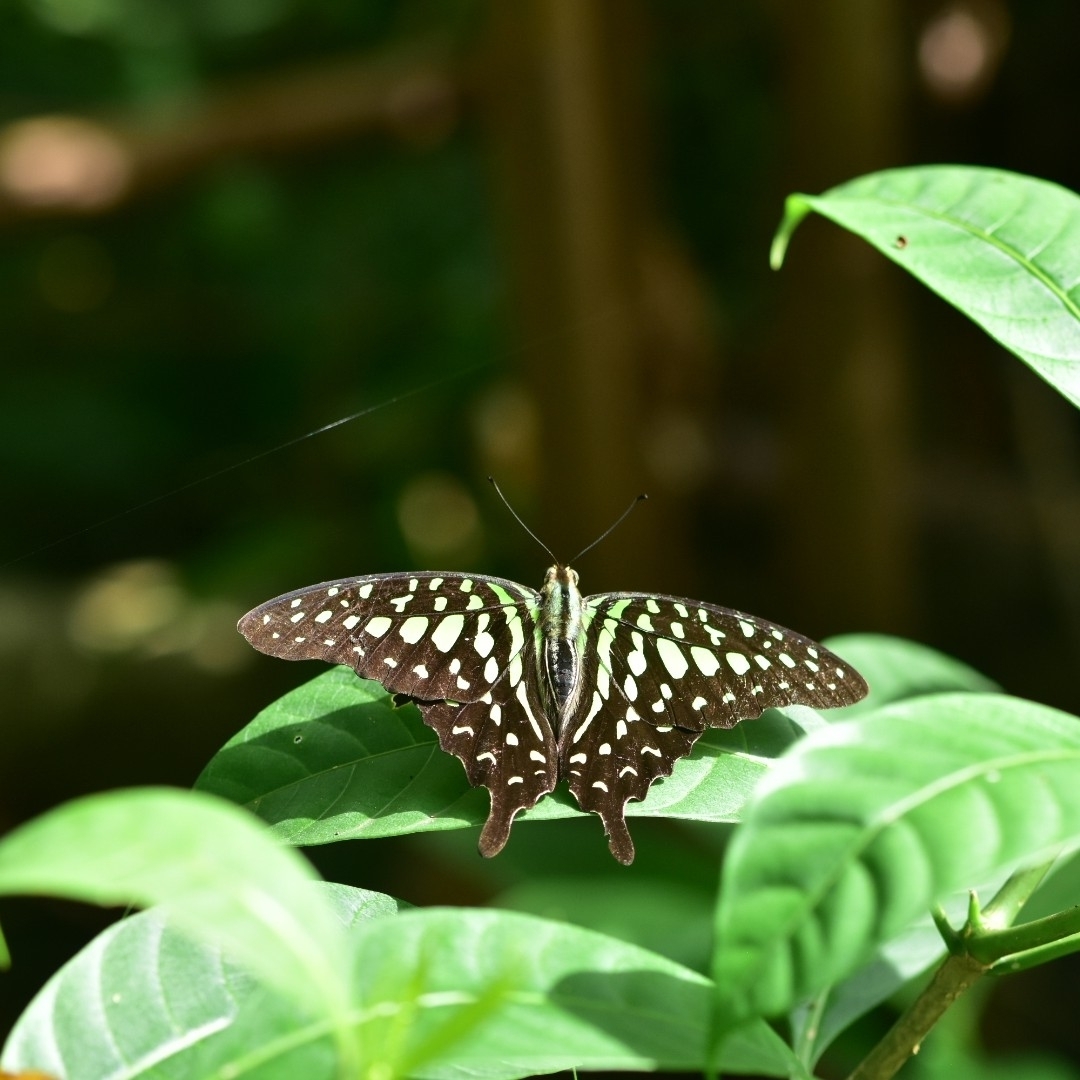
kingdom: Animalia
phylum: Arthropoda
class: Insecta
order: Lepidoptera
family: Papilionidae
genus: Graphium
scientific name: Graphium agamemnon
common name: Tailed jay
